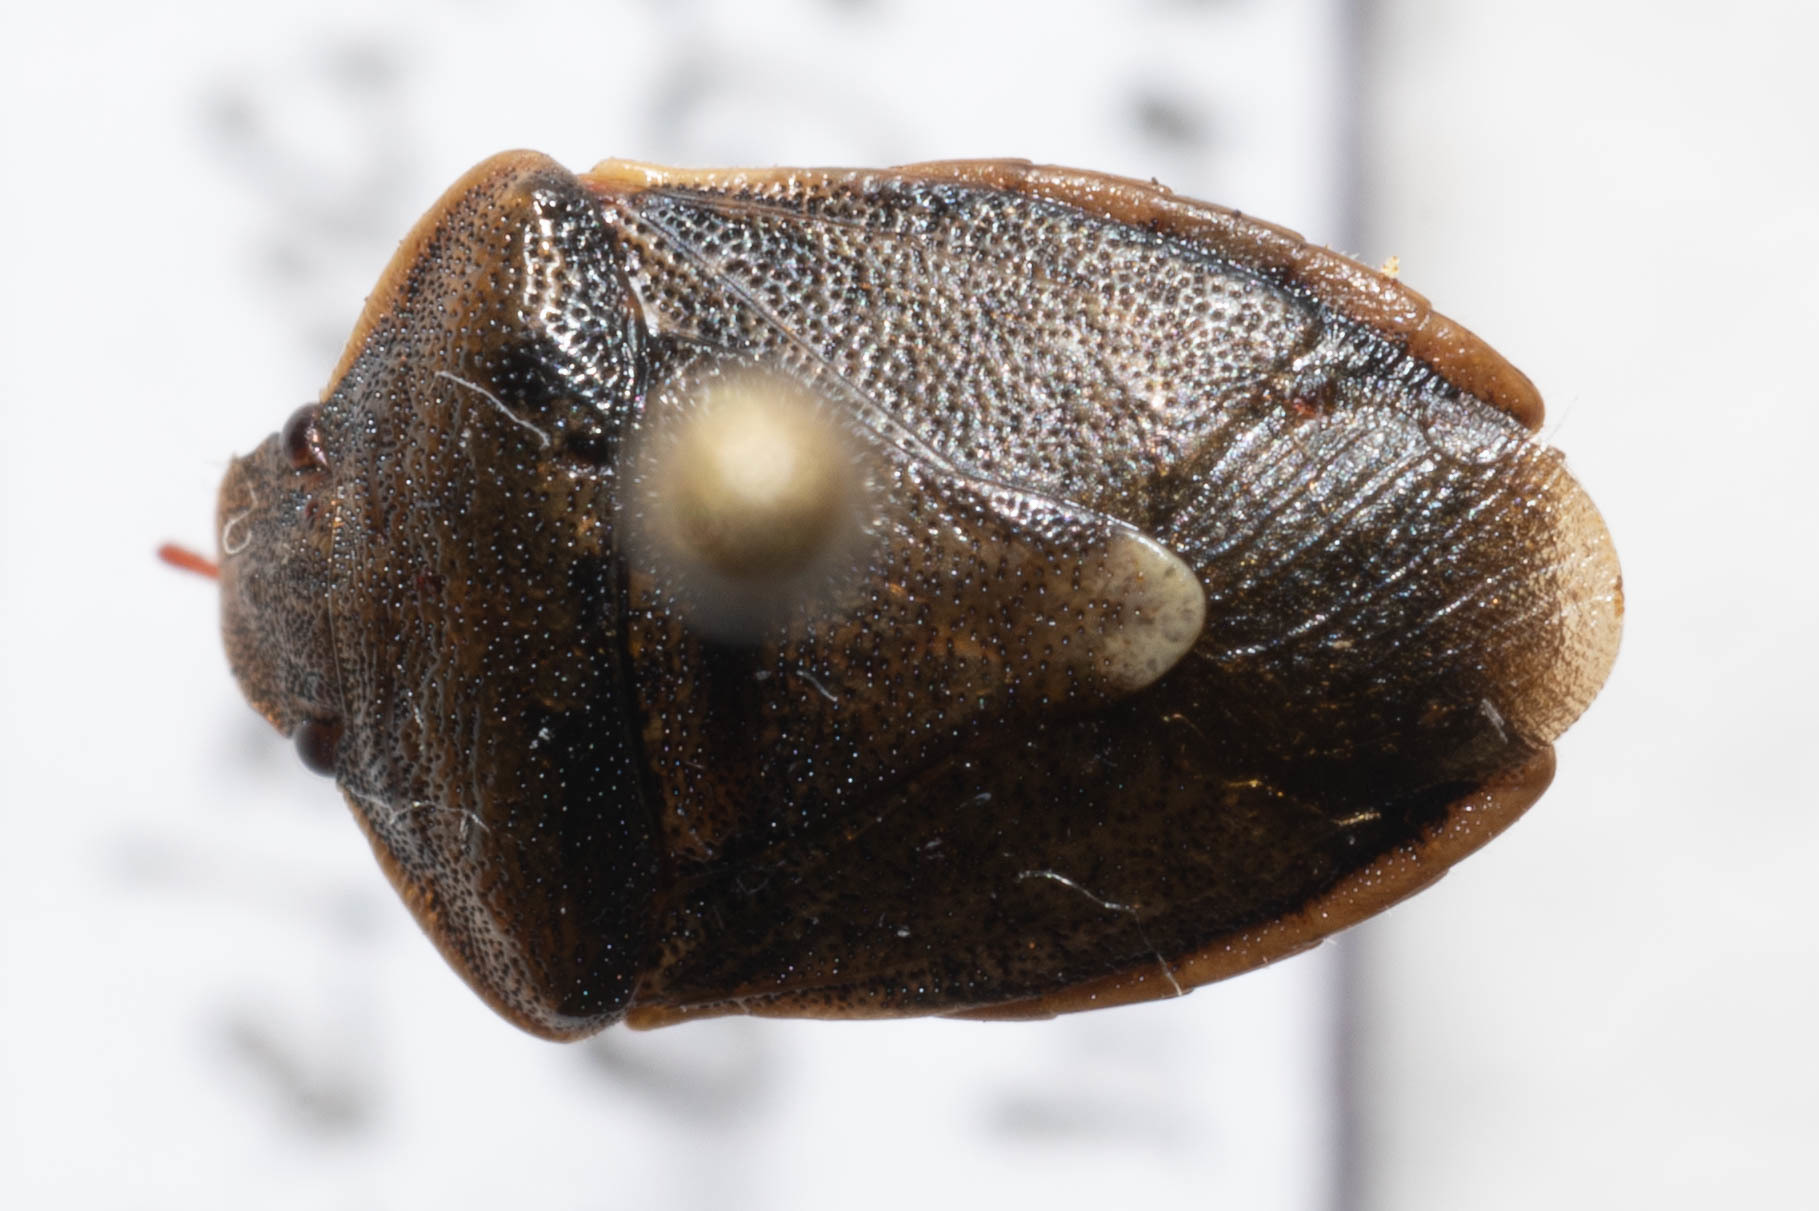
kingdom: Animalia
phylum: Arthropoda
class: Insecta
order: Hemiptera
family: Pentatomidae
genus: Holcostethus
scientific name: Holcostethus limbolarius
